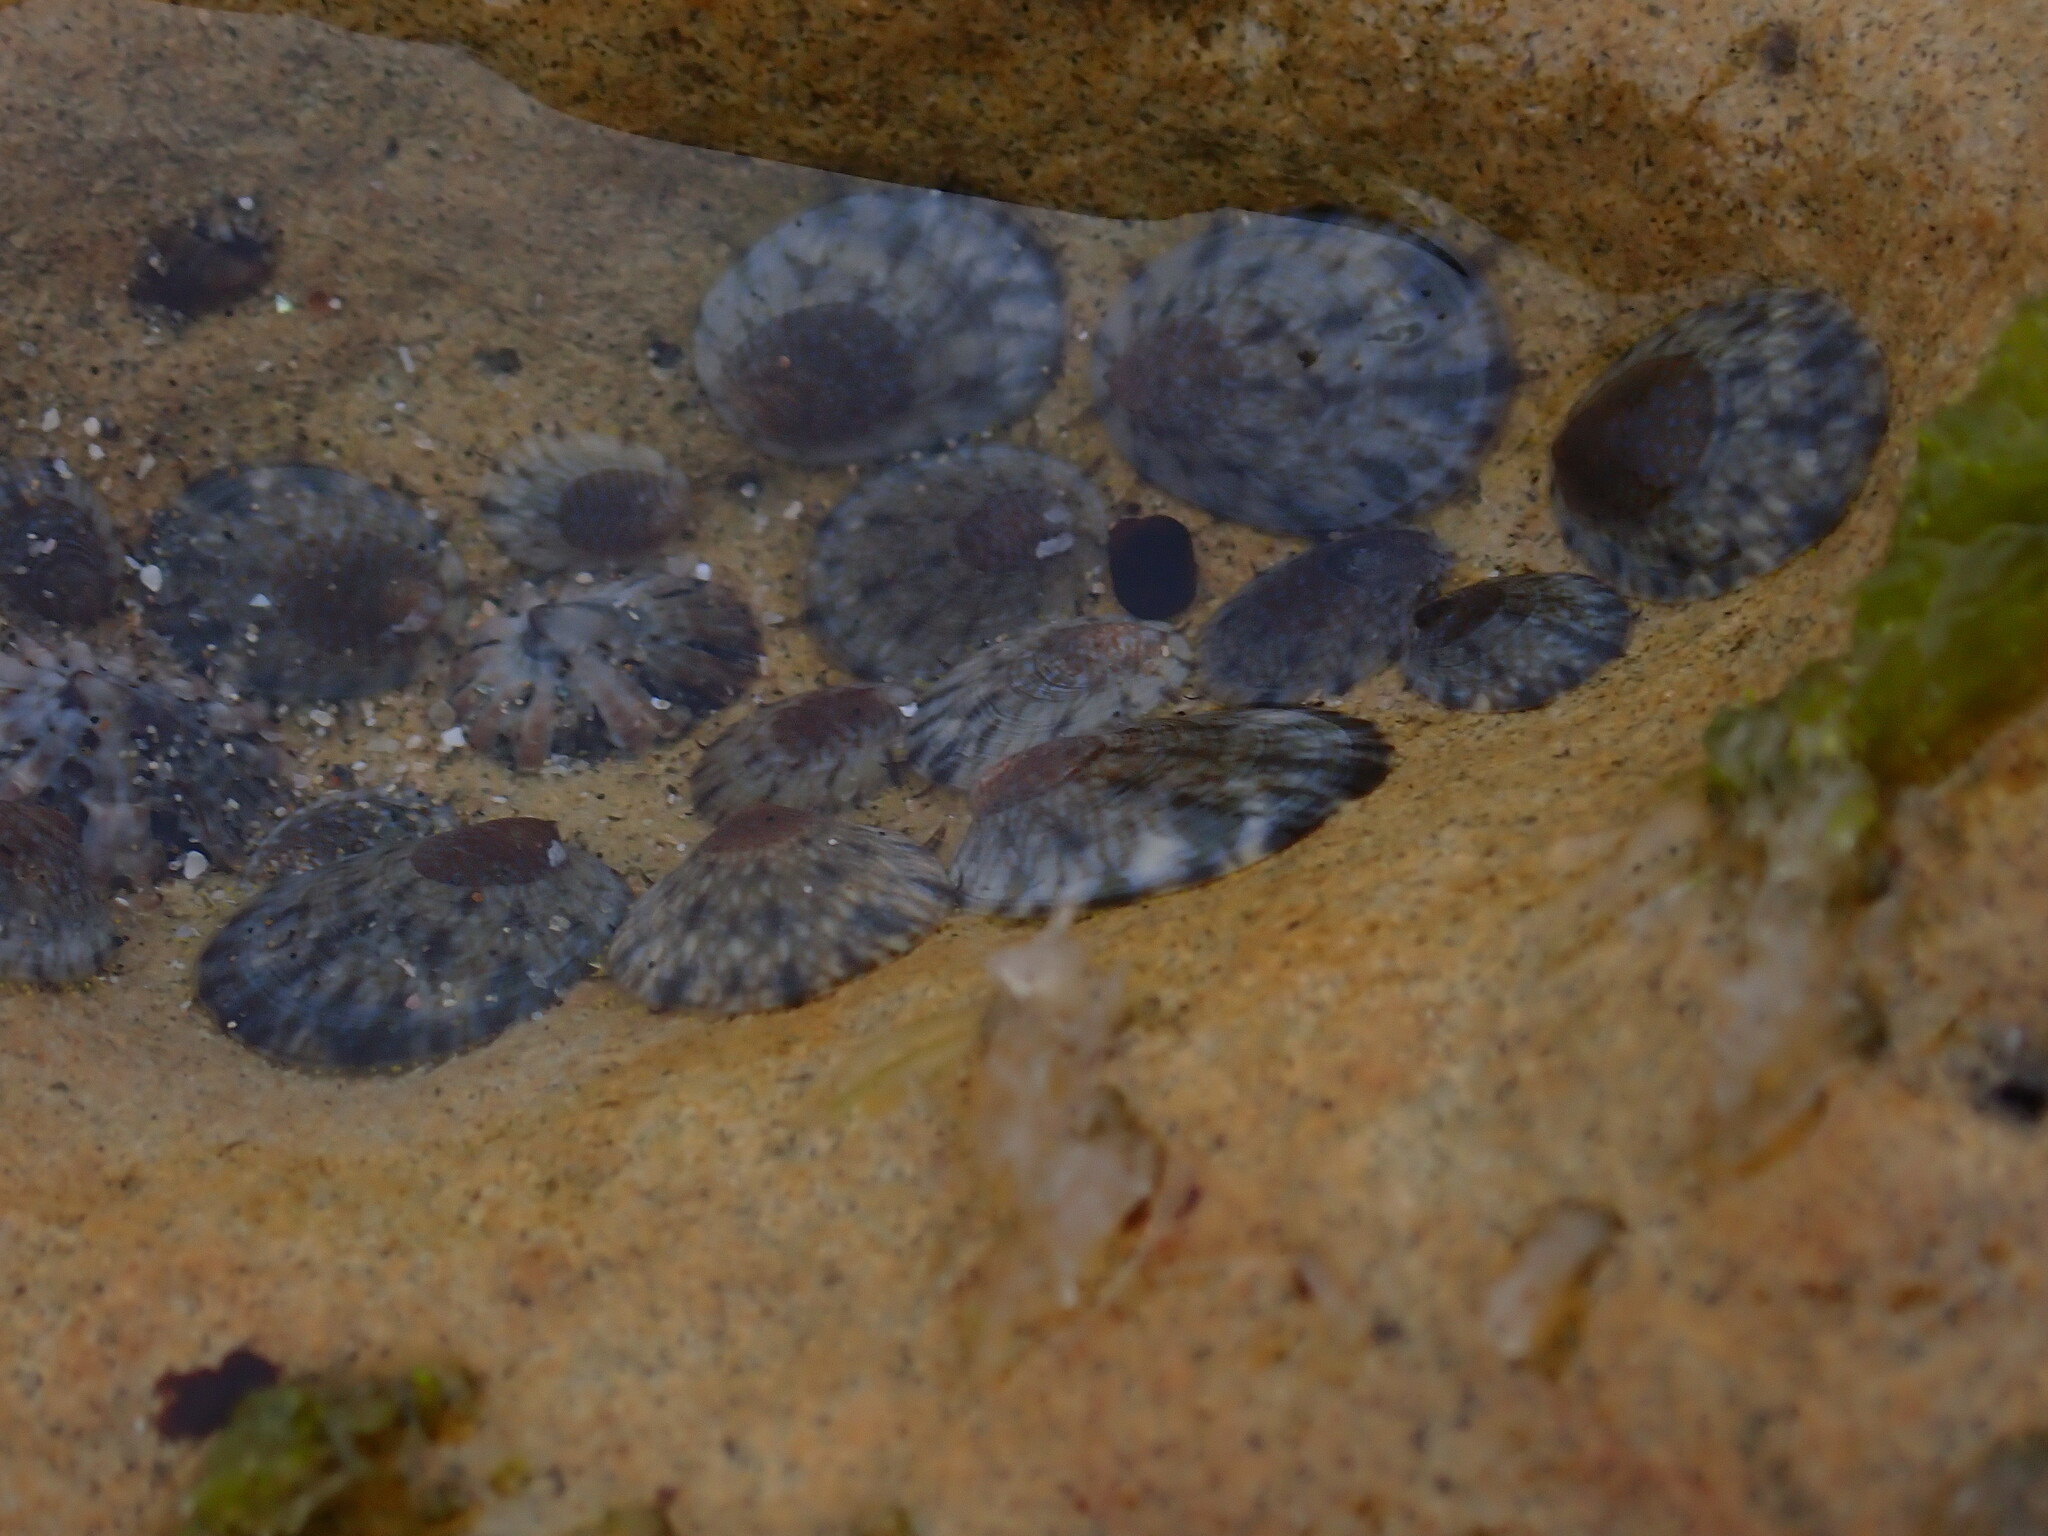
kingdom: Animalia
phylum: Mollusca
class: Gastropoda
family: Nacellidae
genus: Cellana
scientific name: Cellana radians
